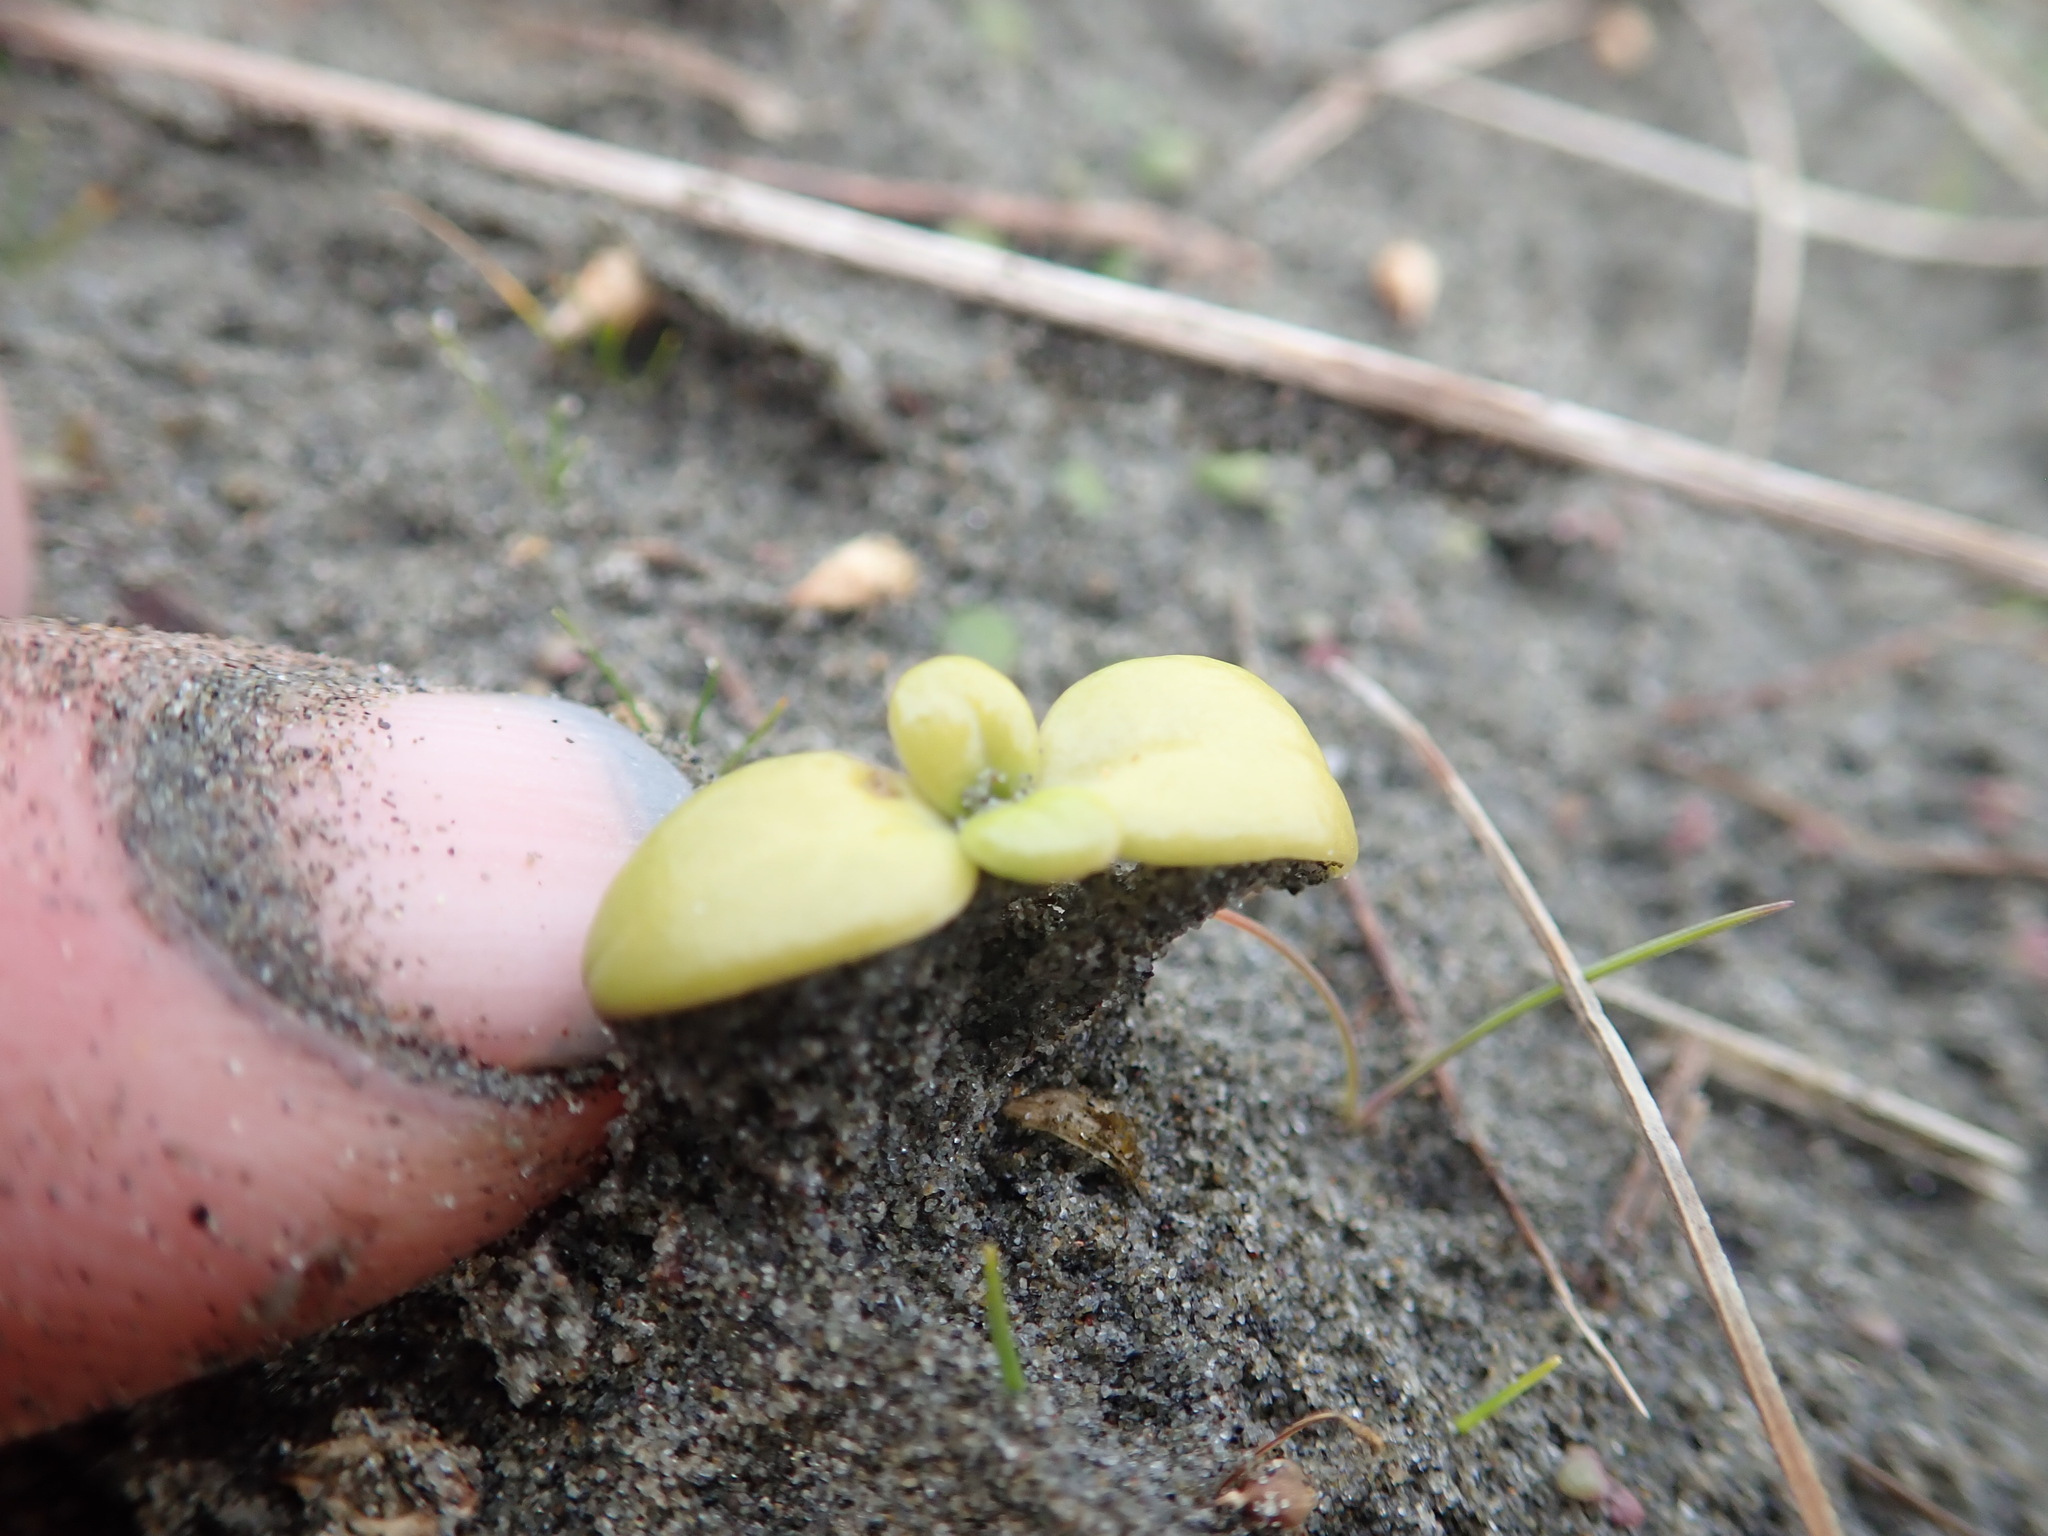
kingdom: Plantae
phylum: Tracheophyta
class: Magnoliopsida
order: Gentianales
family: Rubiaceae
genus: Coprosma
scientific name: Coprosma repens
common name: Tree bedstraw
